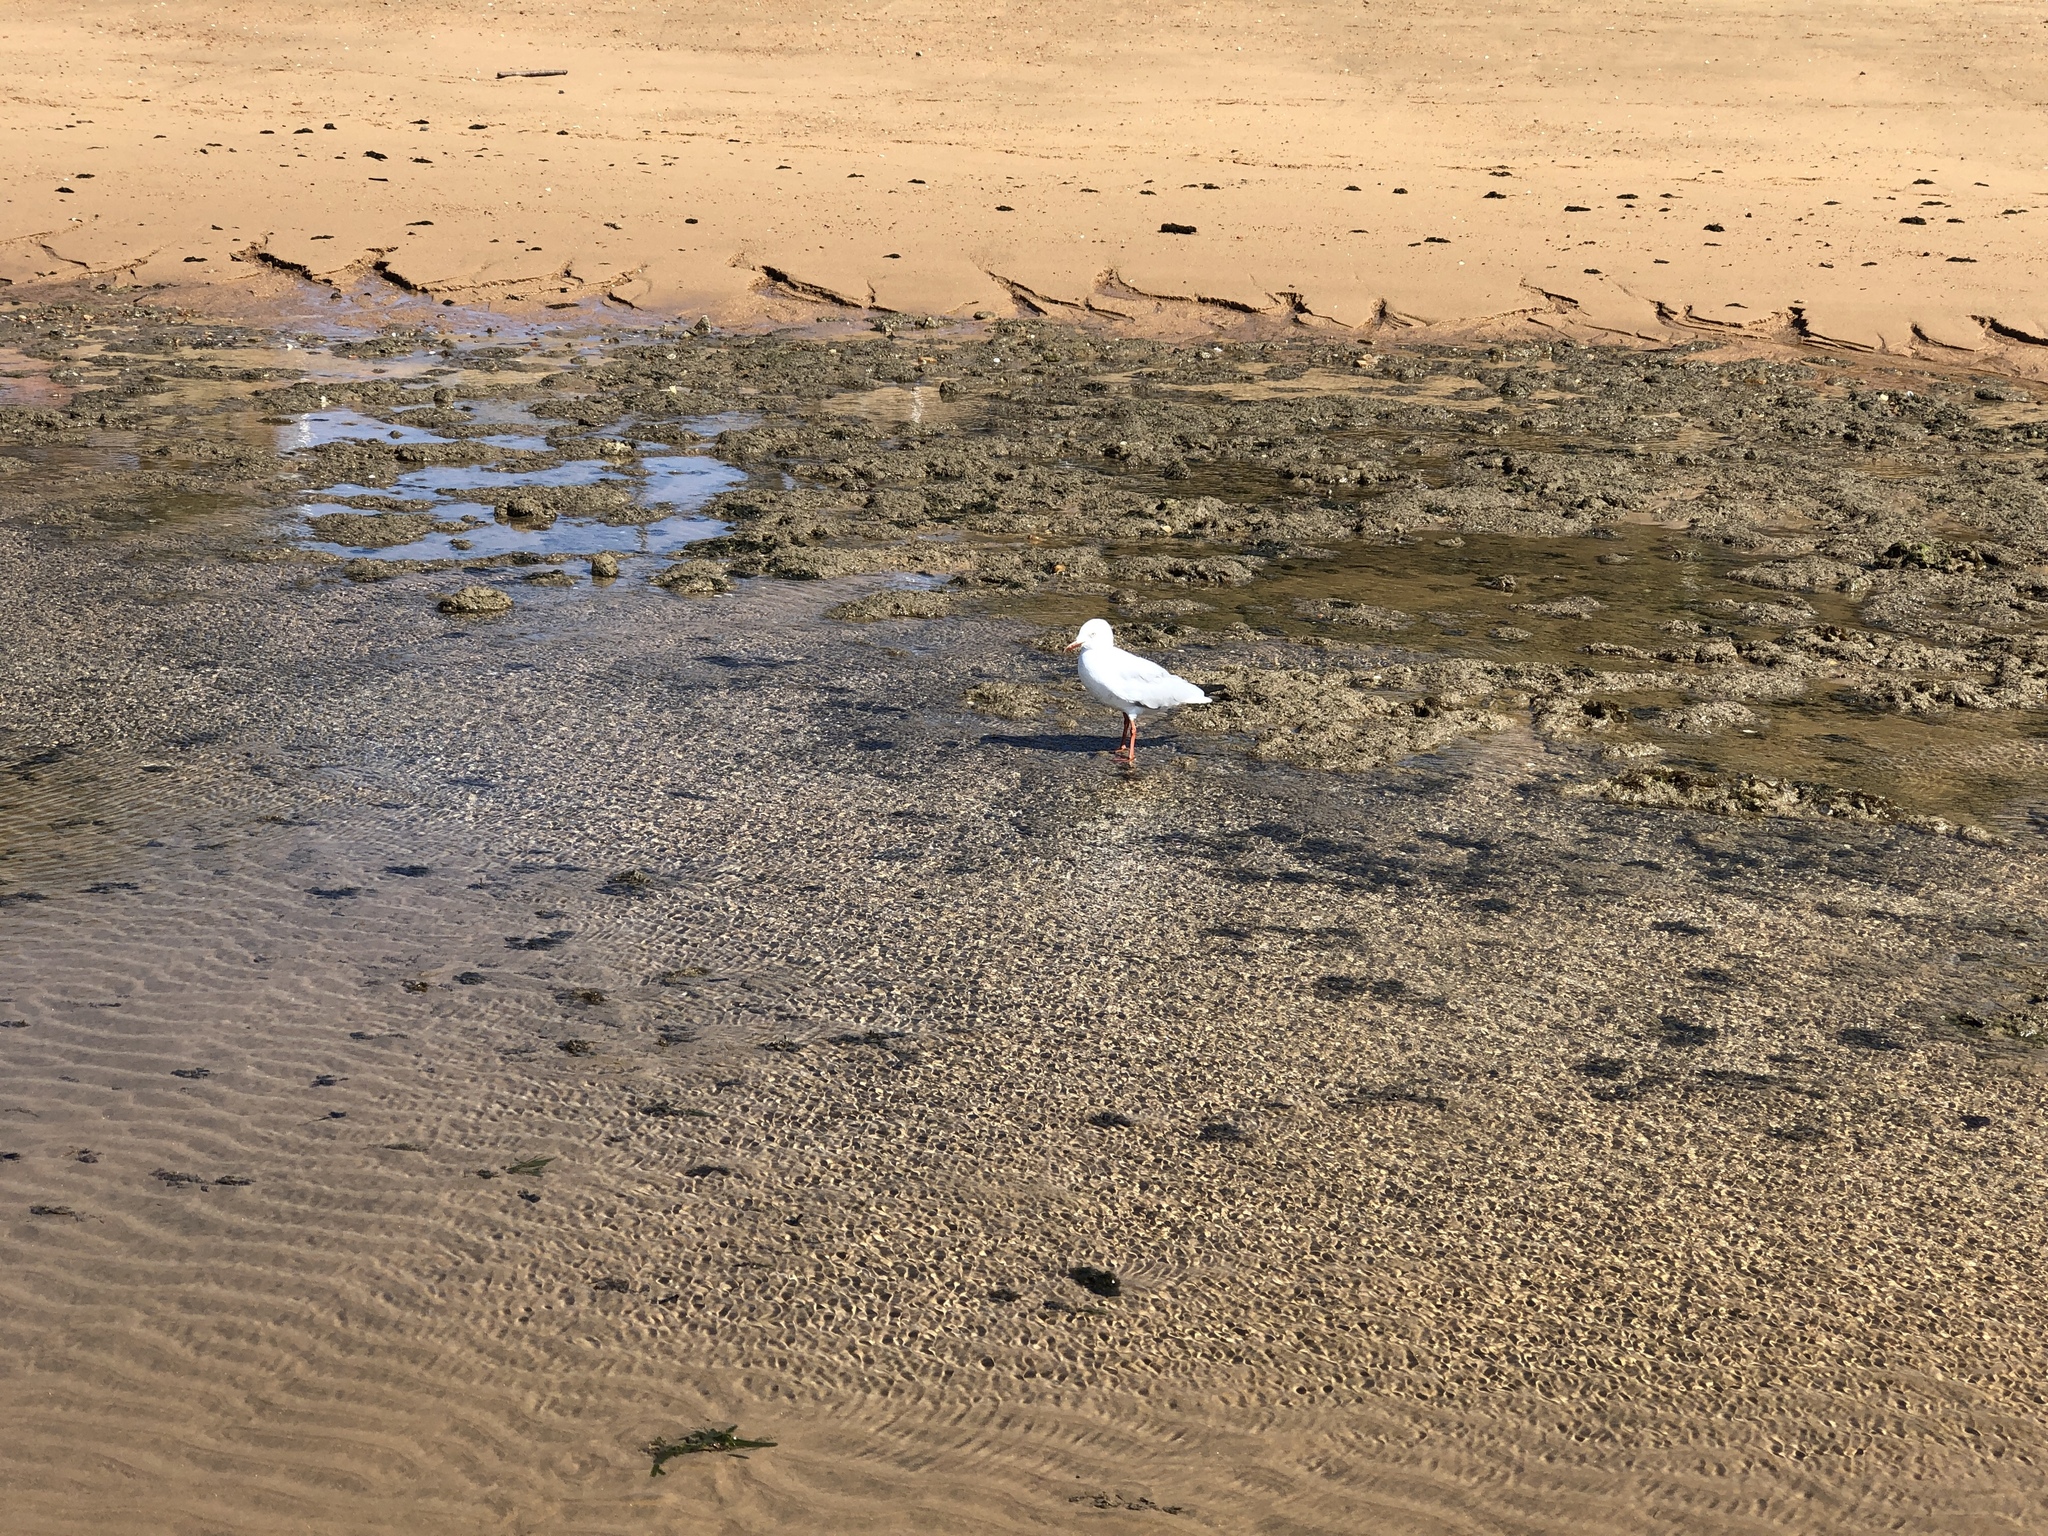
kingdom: Animalia
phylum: Chordata
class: Aves
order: Charadriiformes
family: Laridae
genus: Chroicocephalus
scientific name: Chroicocephalus novaehollandiae
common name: Silver gull
